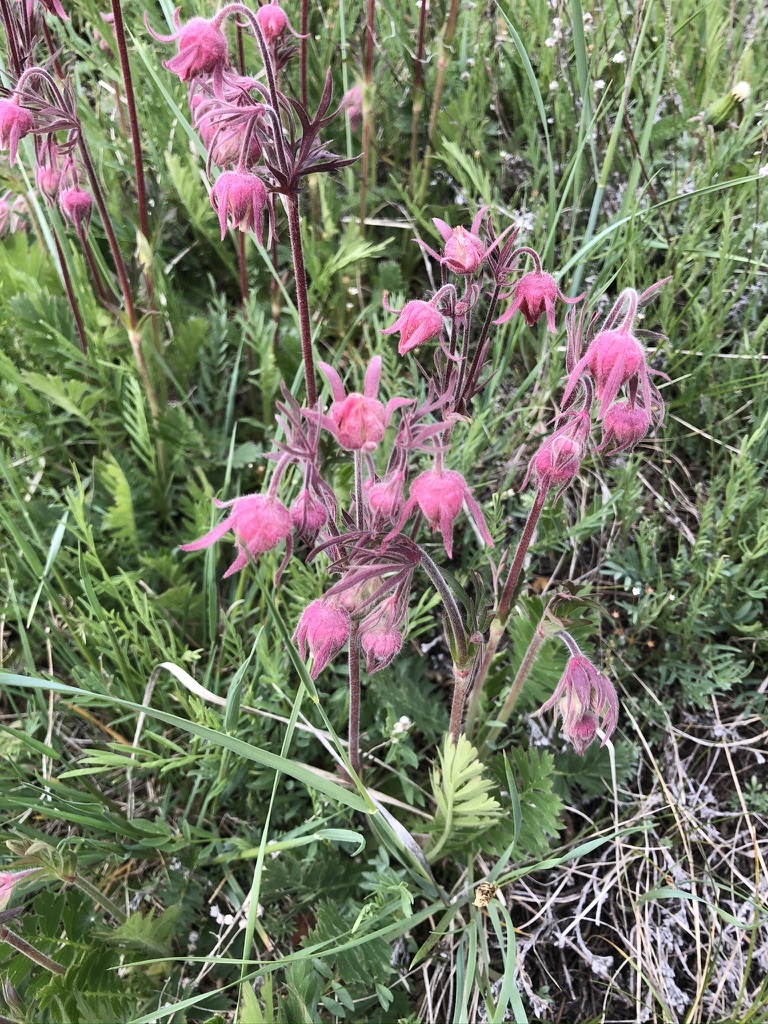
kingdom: Plantae
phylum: Tracheophyta
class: Magnoliopsida
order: Rosales
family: Rosaceae
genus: Geum
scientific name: Geum triflorum
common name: Old man's whiskers
